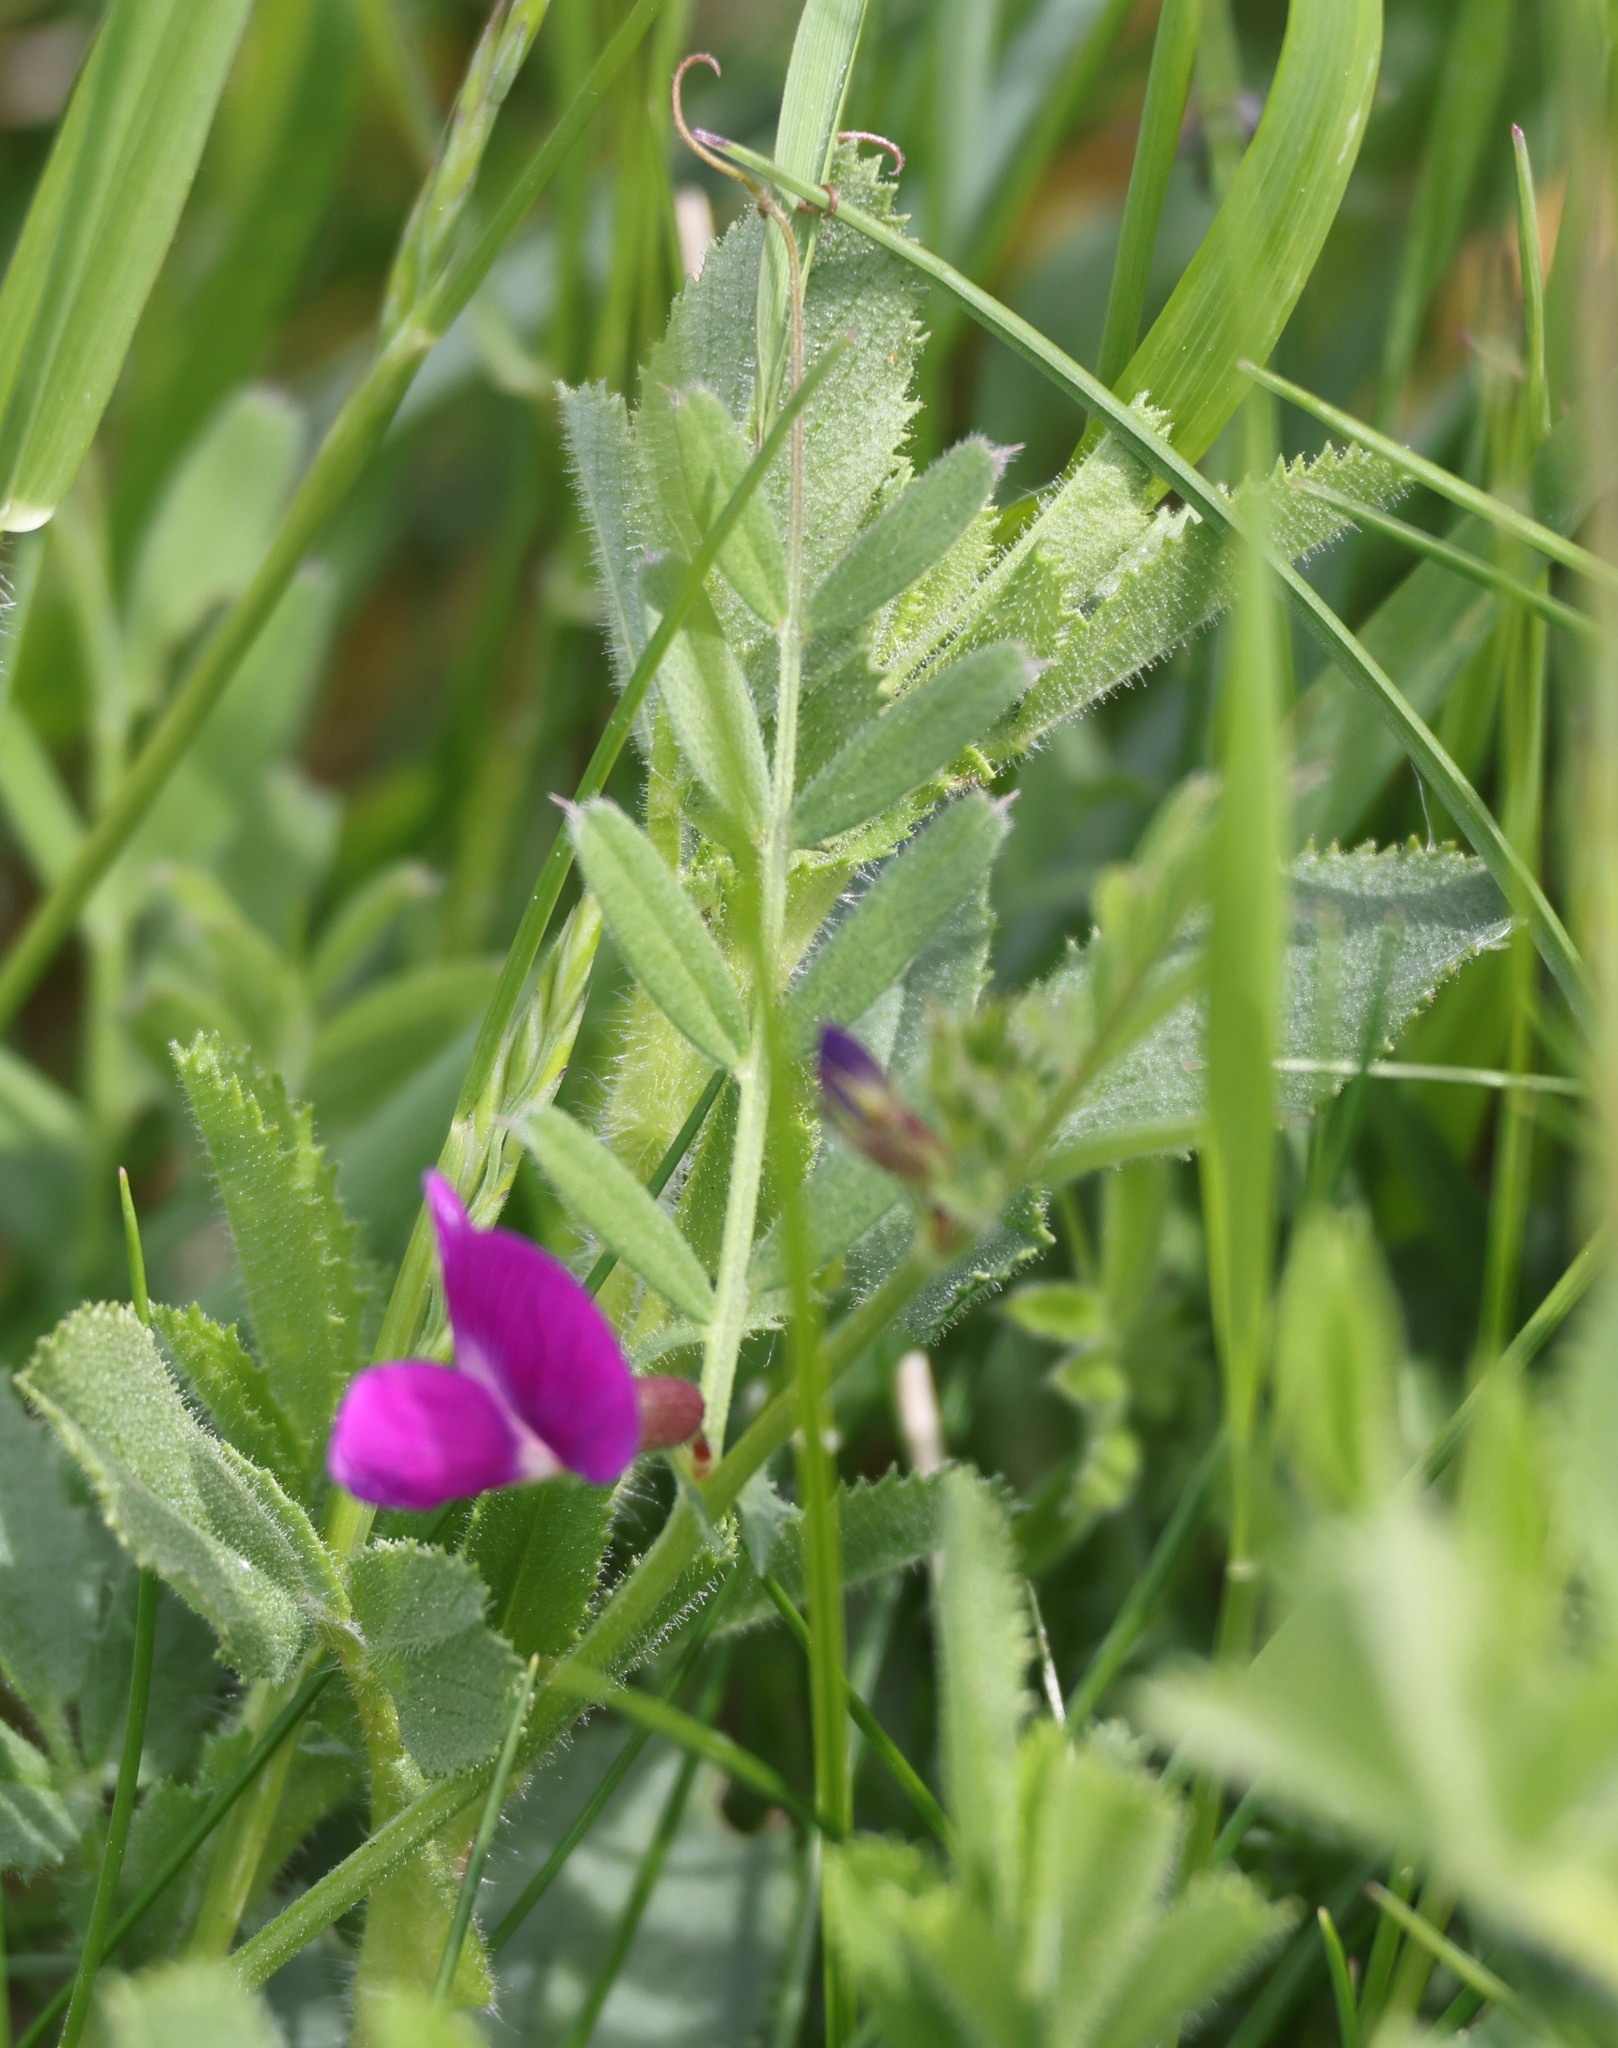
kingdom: Plantae
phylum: Tracheophyta
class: Magnoliopsida
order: Fabales
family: Fabaceae
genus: Vicia
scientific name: Vicia sativa
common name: Garden vetch
